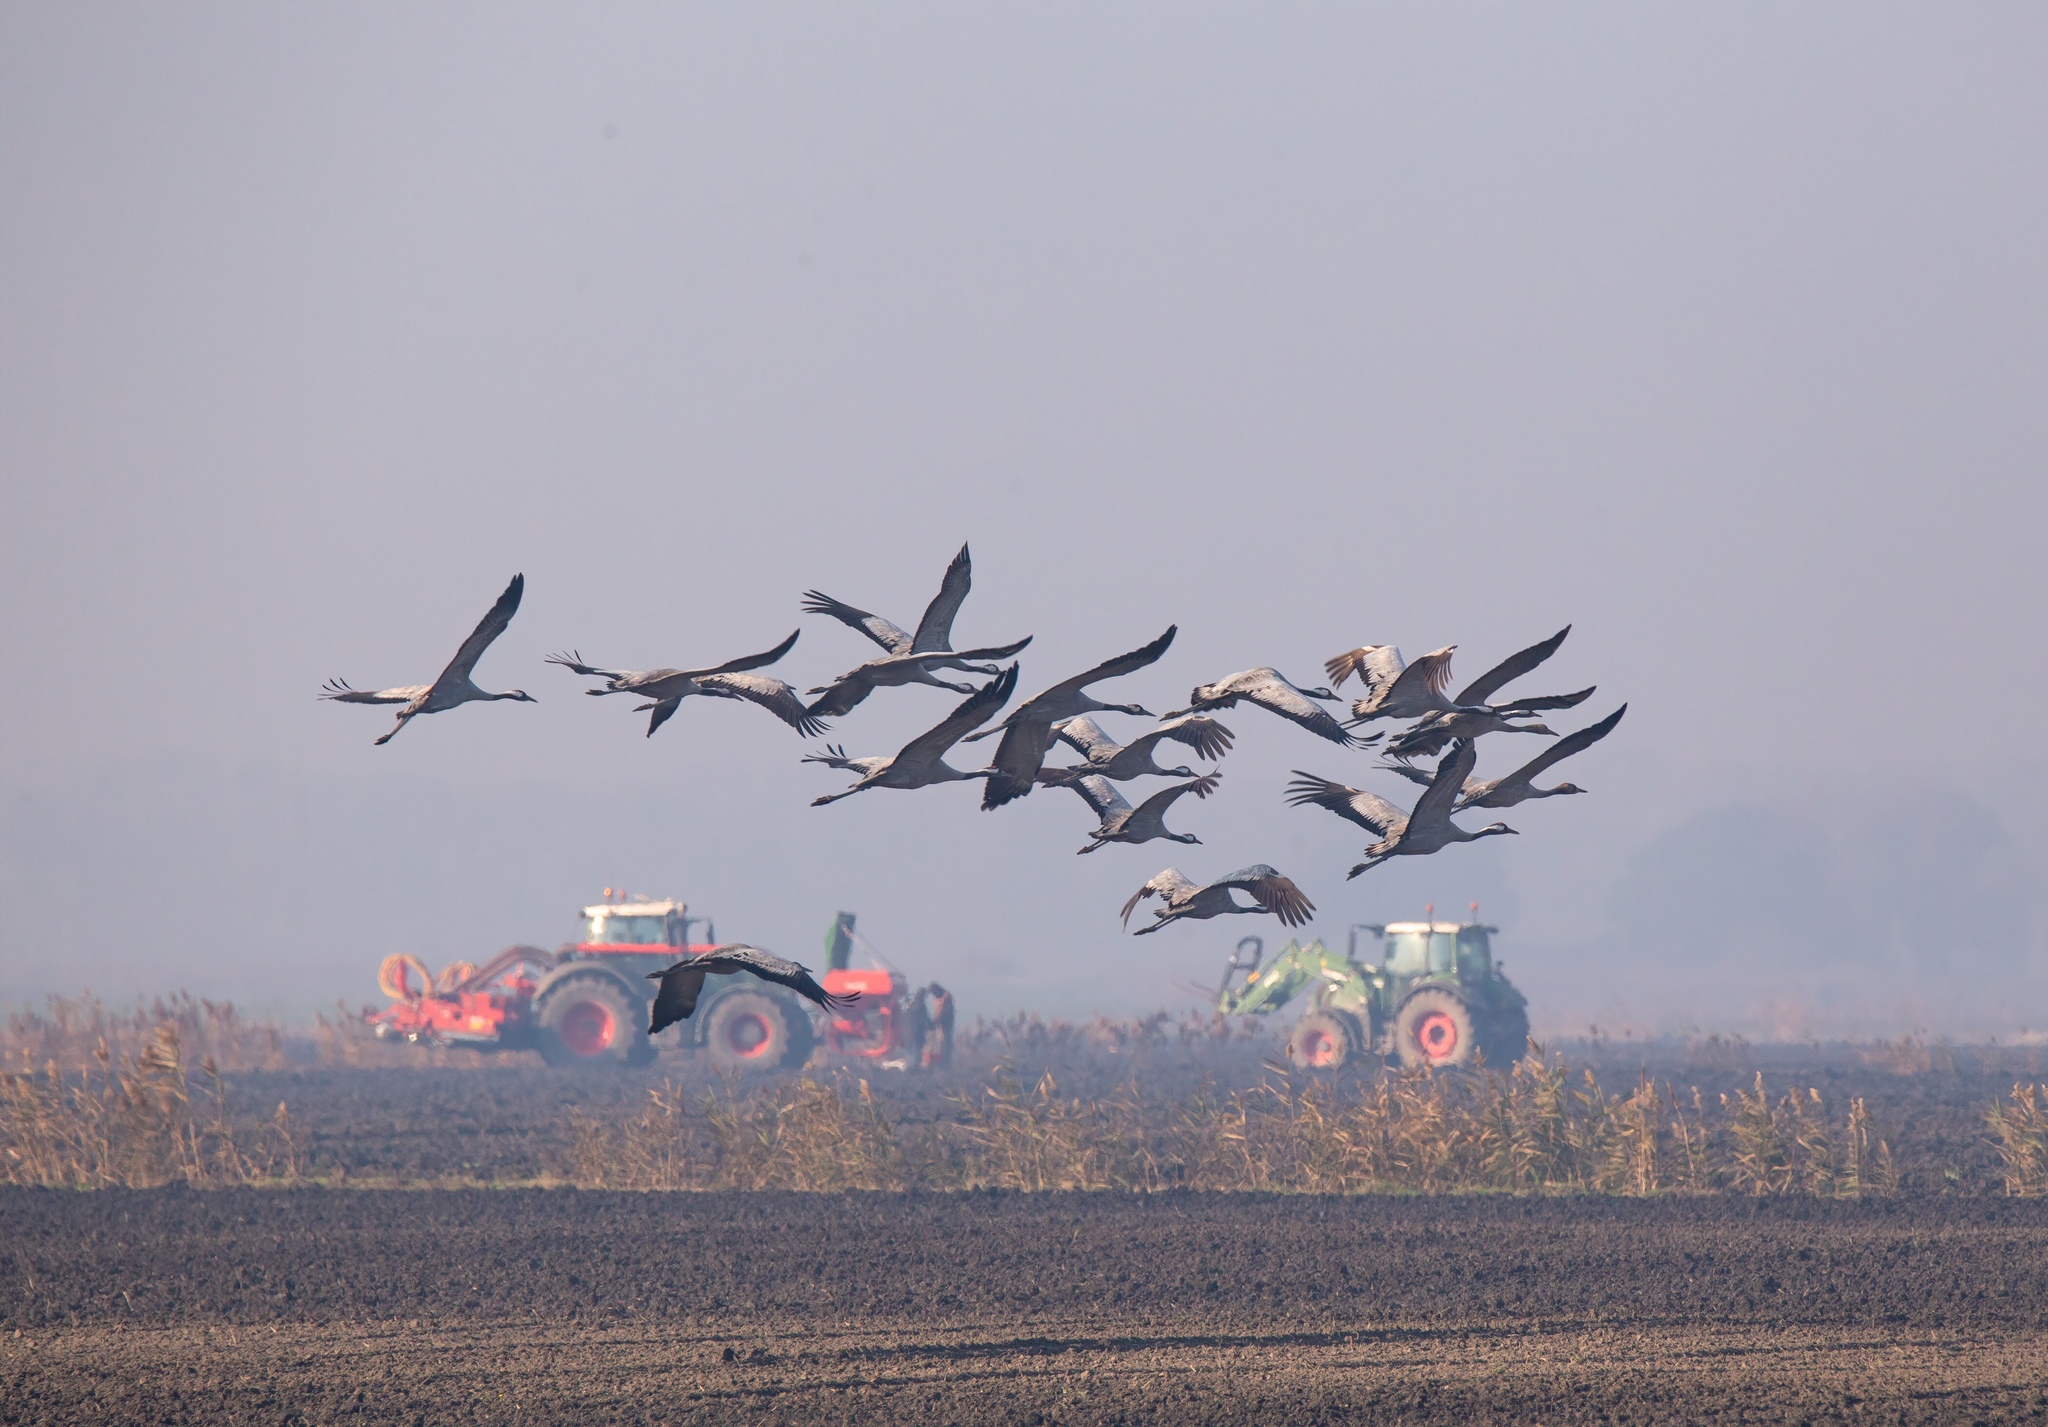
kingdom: Animalia
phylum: Chordata
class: Aves
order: Gruiformes
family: Gruidae
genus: Grus
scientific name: Grus grus
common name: Common crane
